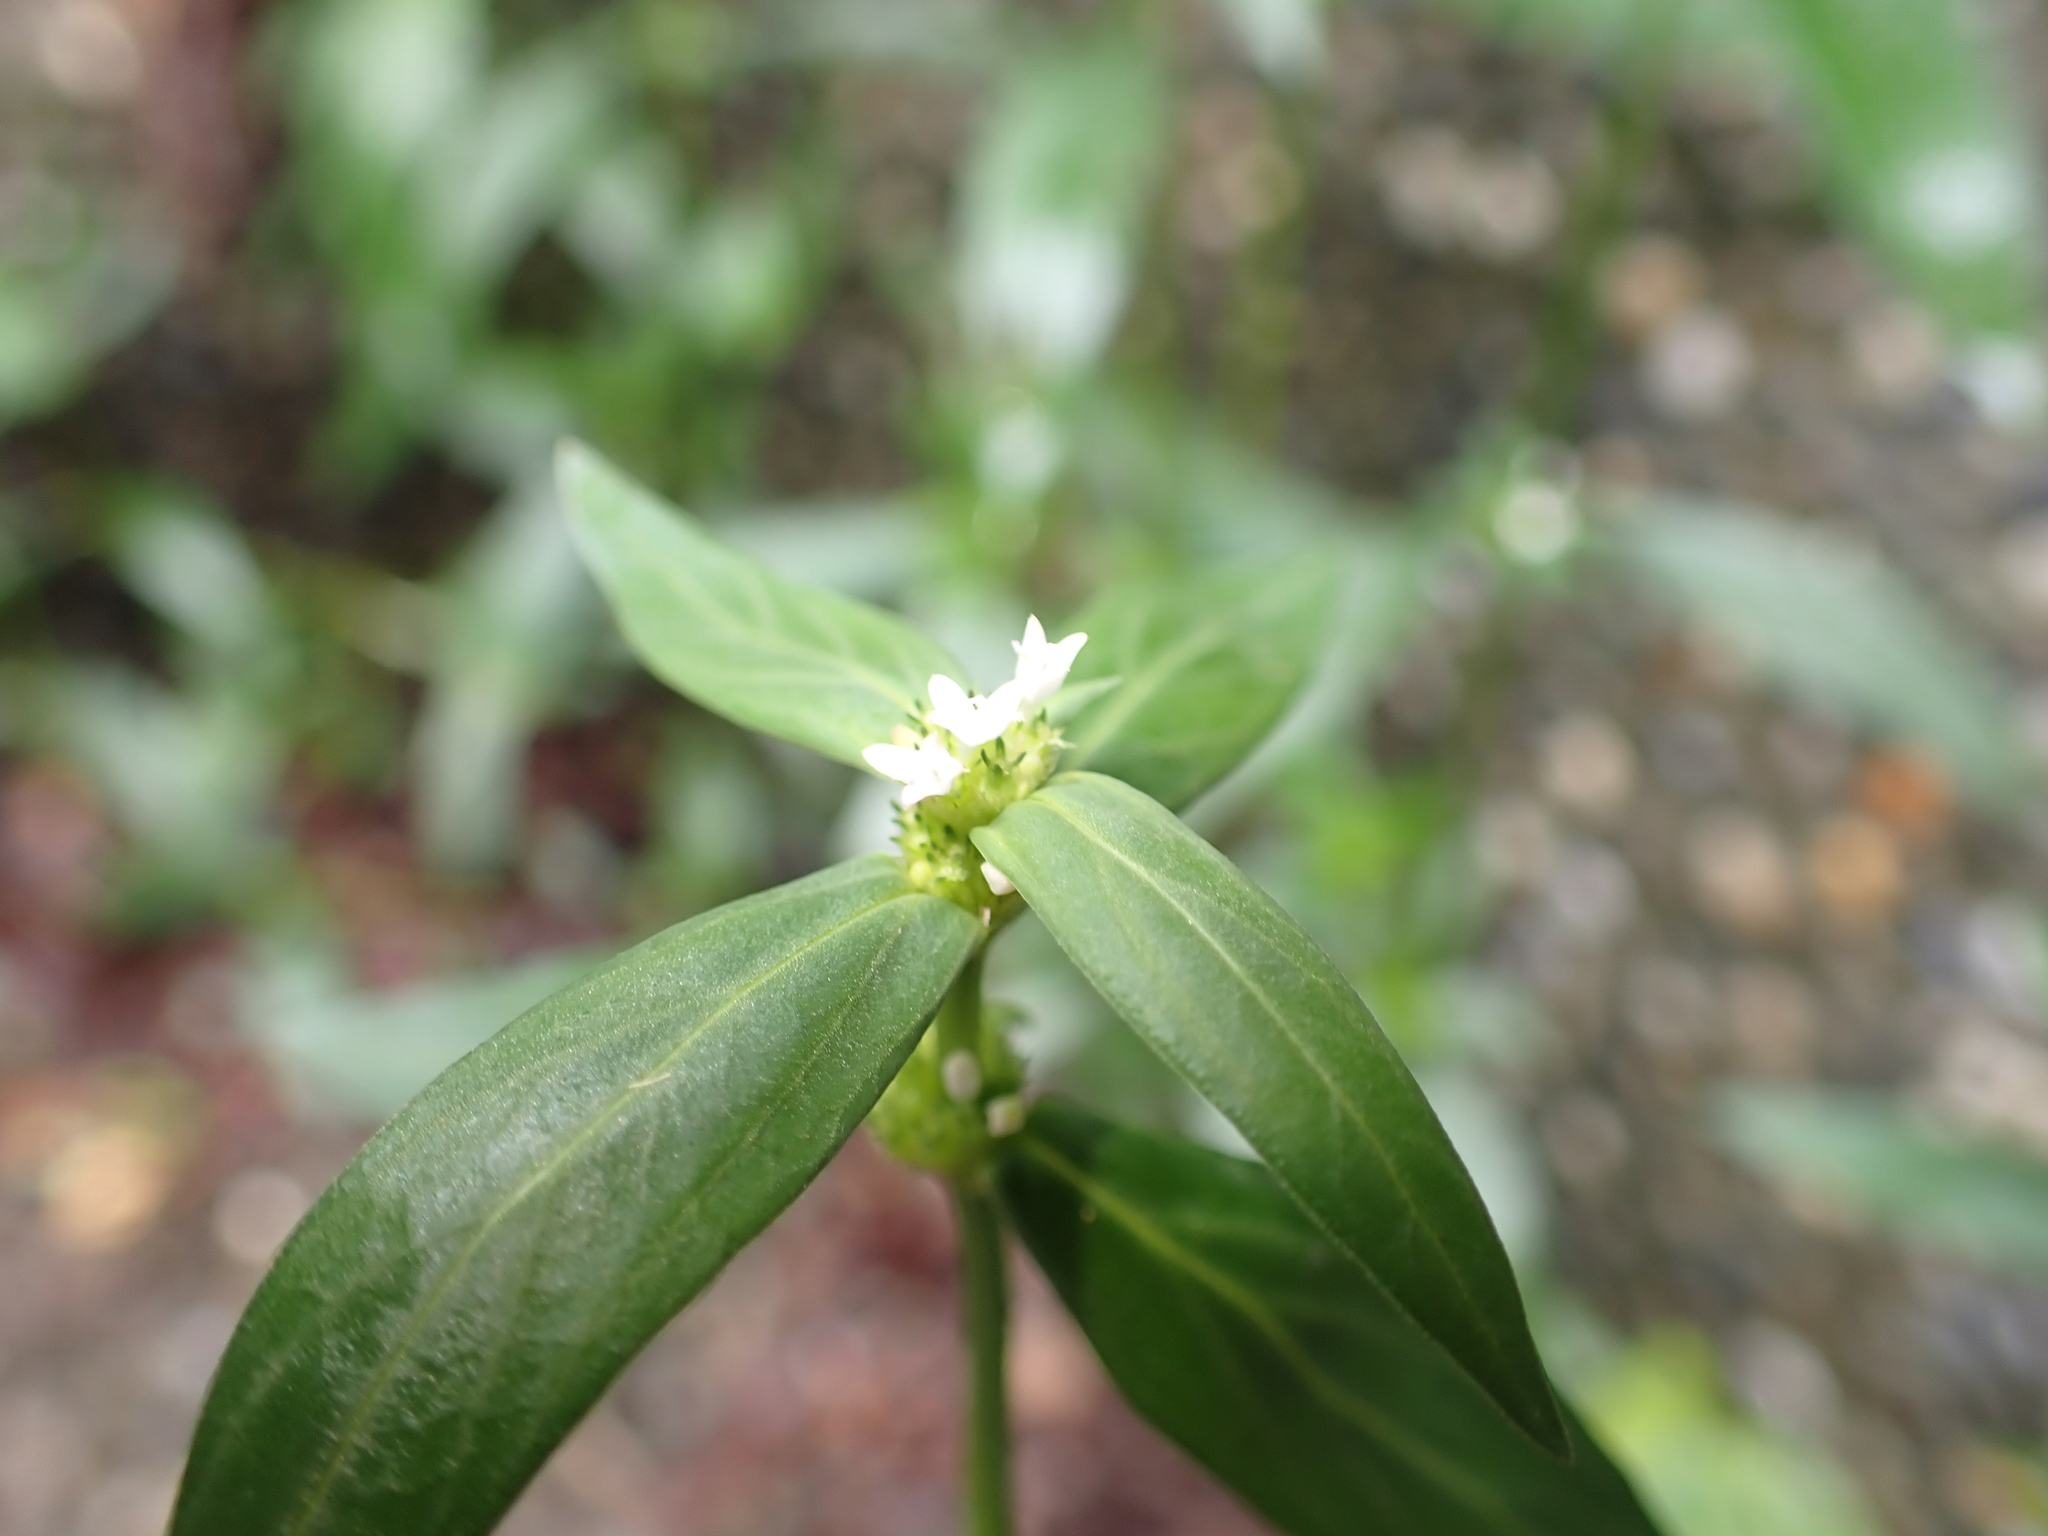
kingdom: Plantae
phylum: Tracheophyta
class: Magnoliopsida
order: Gentianales
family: Rubiaceae
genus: Spermacoce
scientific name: Spermacoce remota
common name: Woodland false buttonweed
